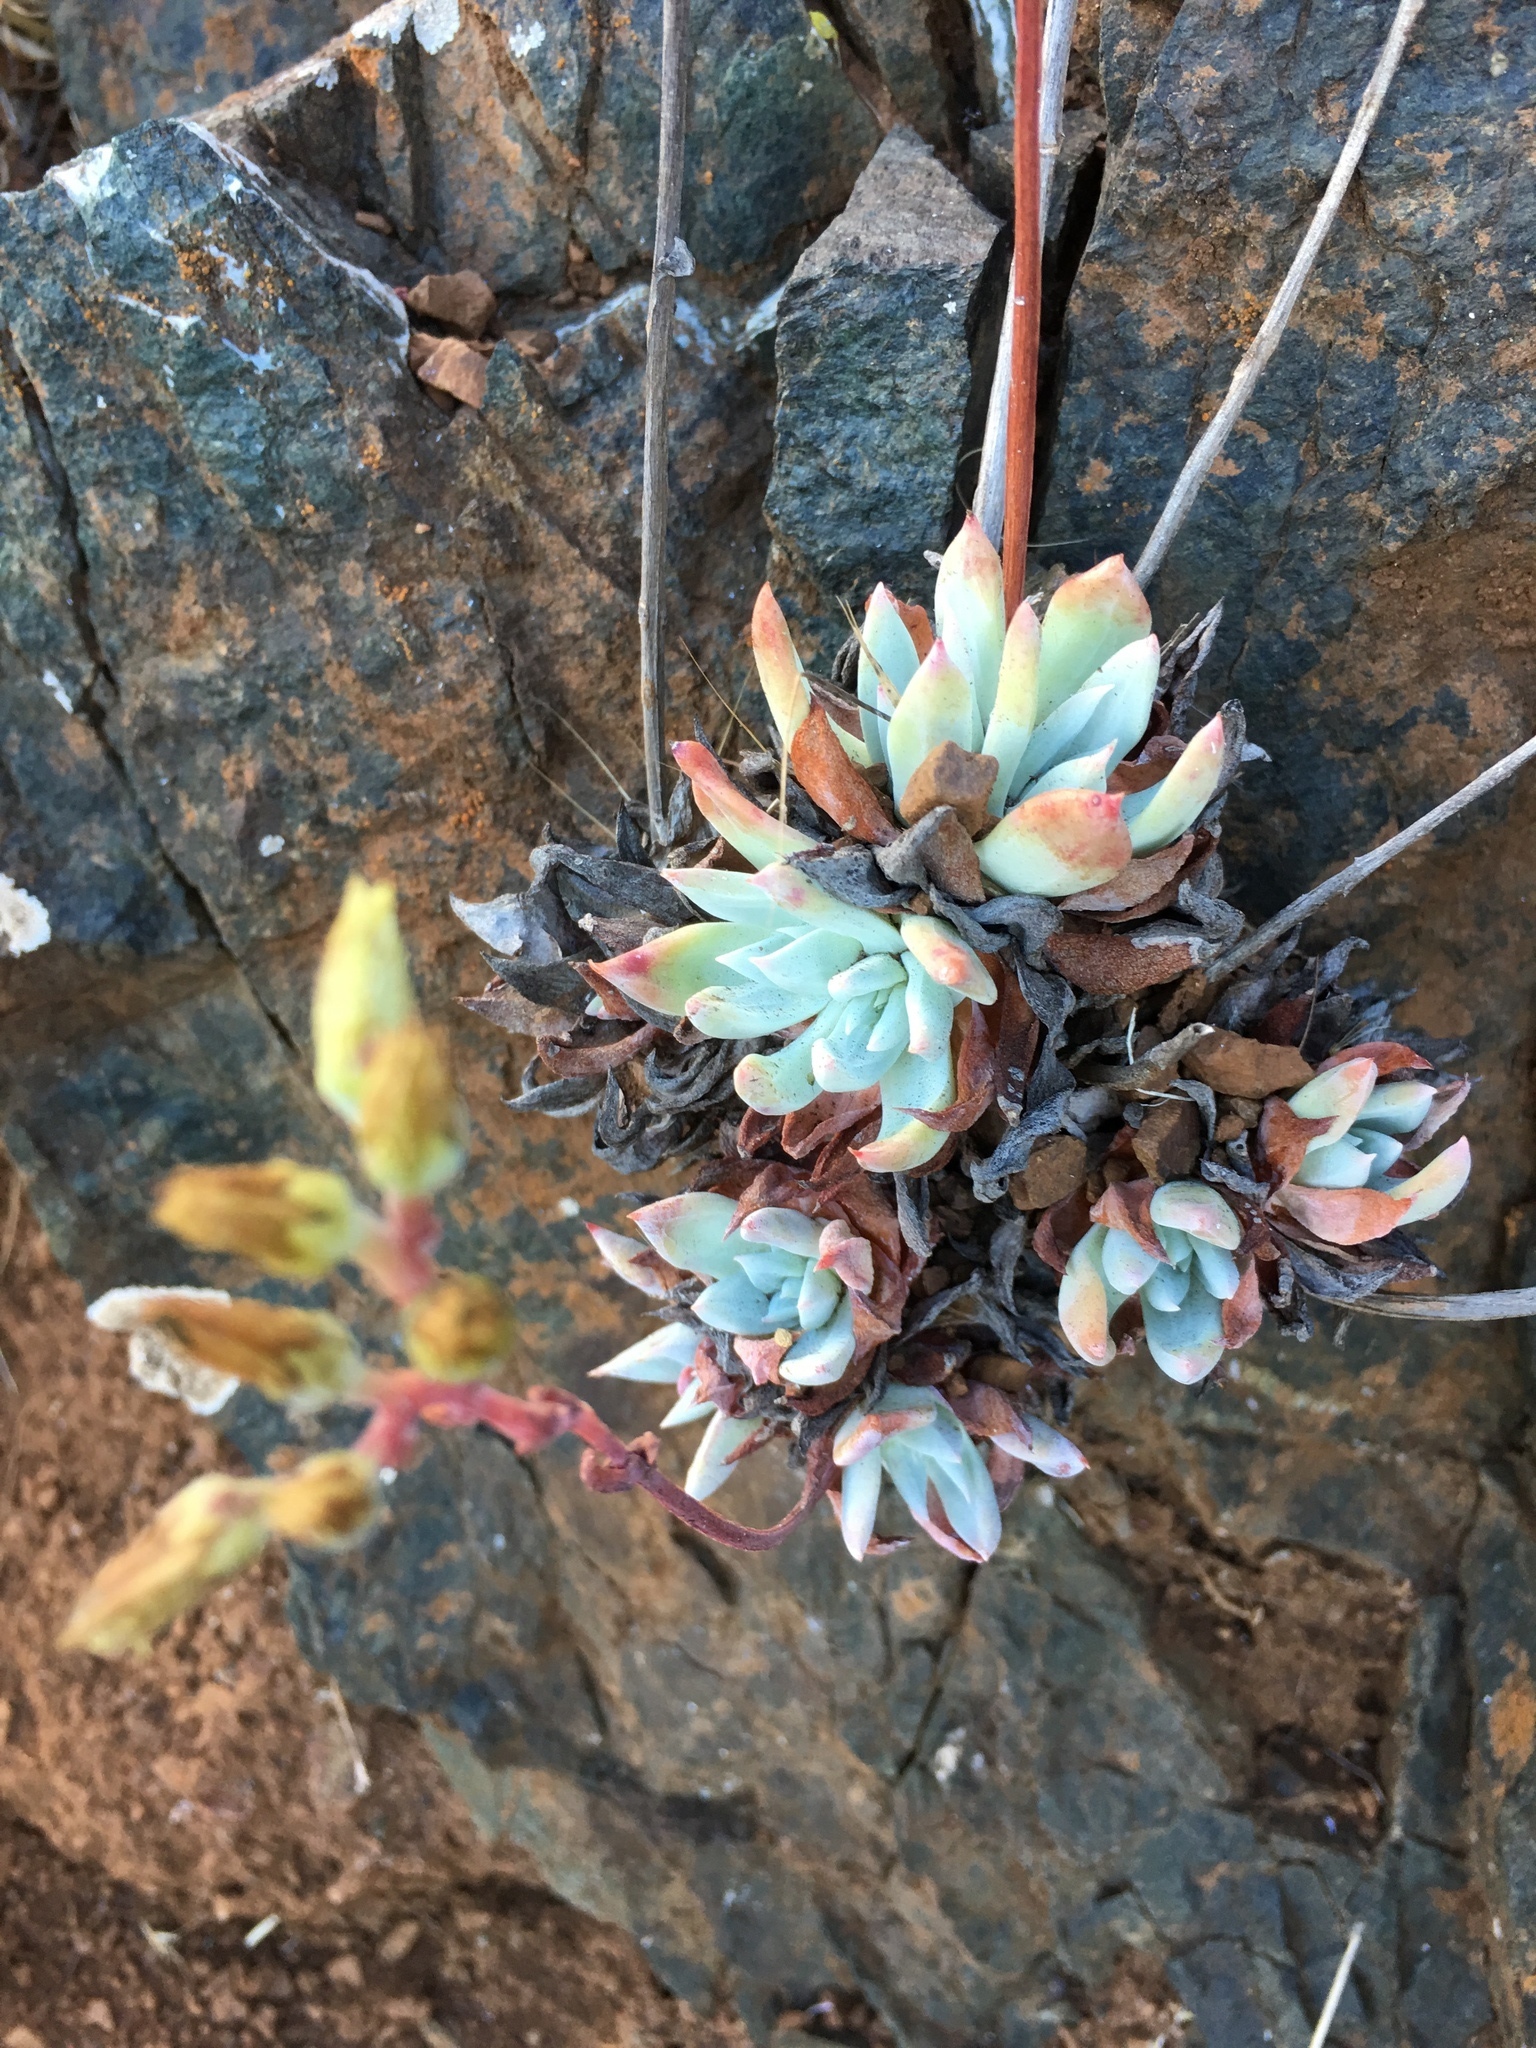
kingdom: Plantae
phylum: Tracheophyta
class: Magnoliopsida
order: Saxifragales
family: Crassulaceae
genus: Dudleya
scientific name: Dudleya farinosa
